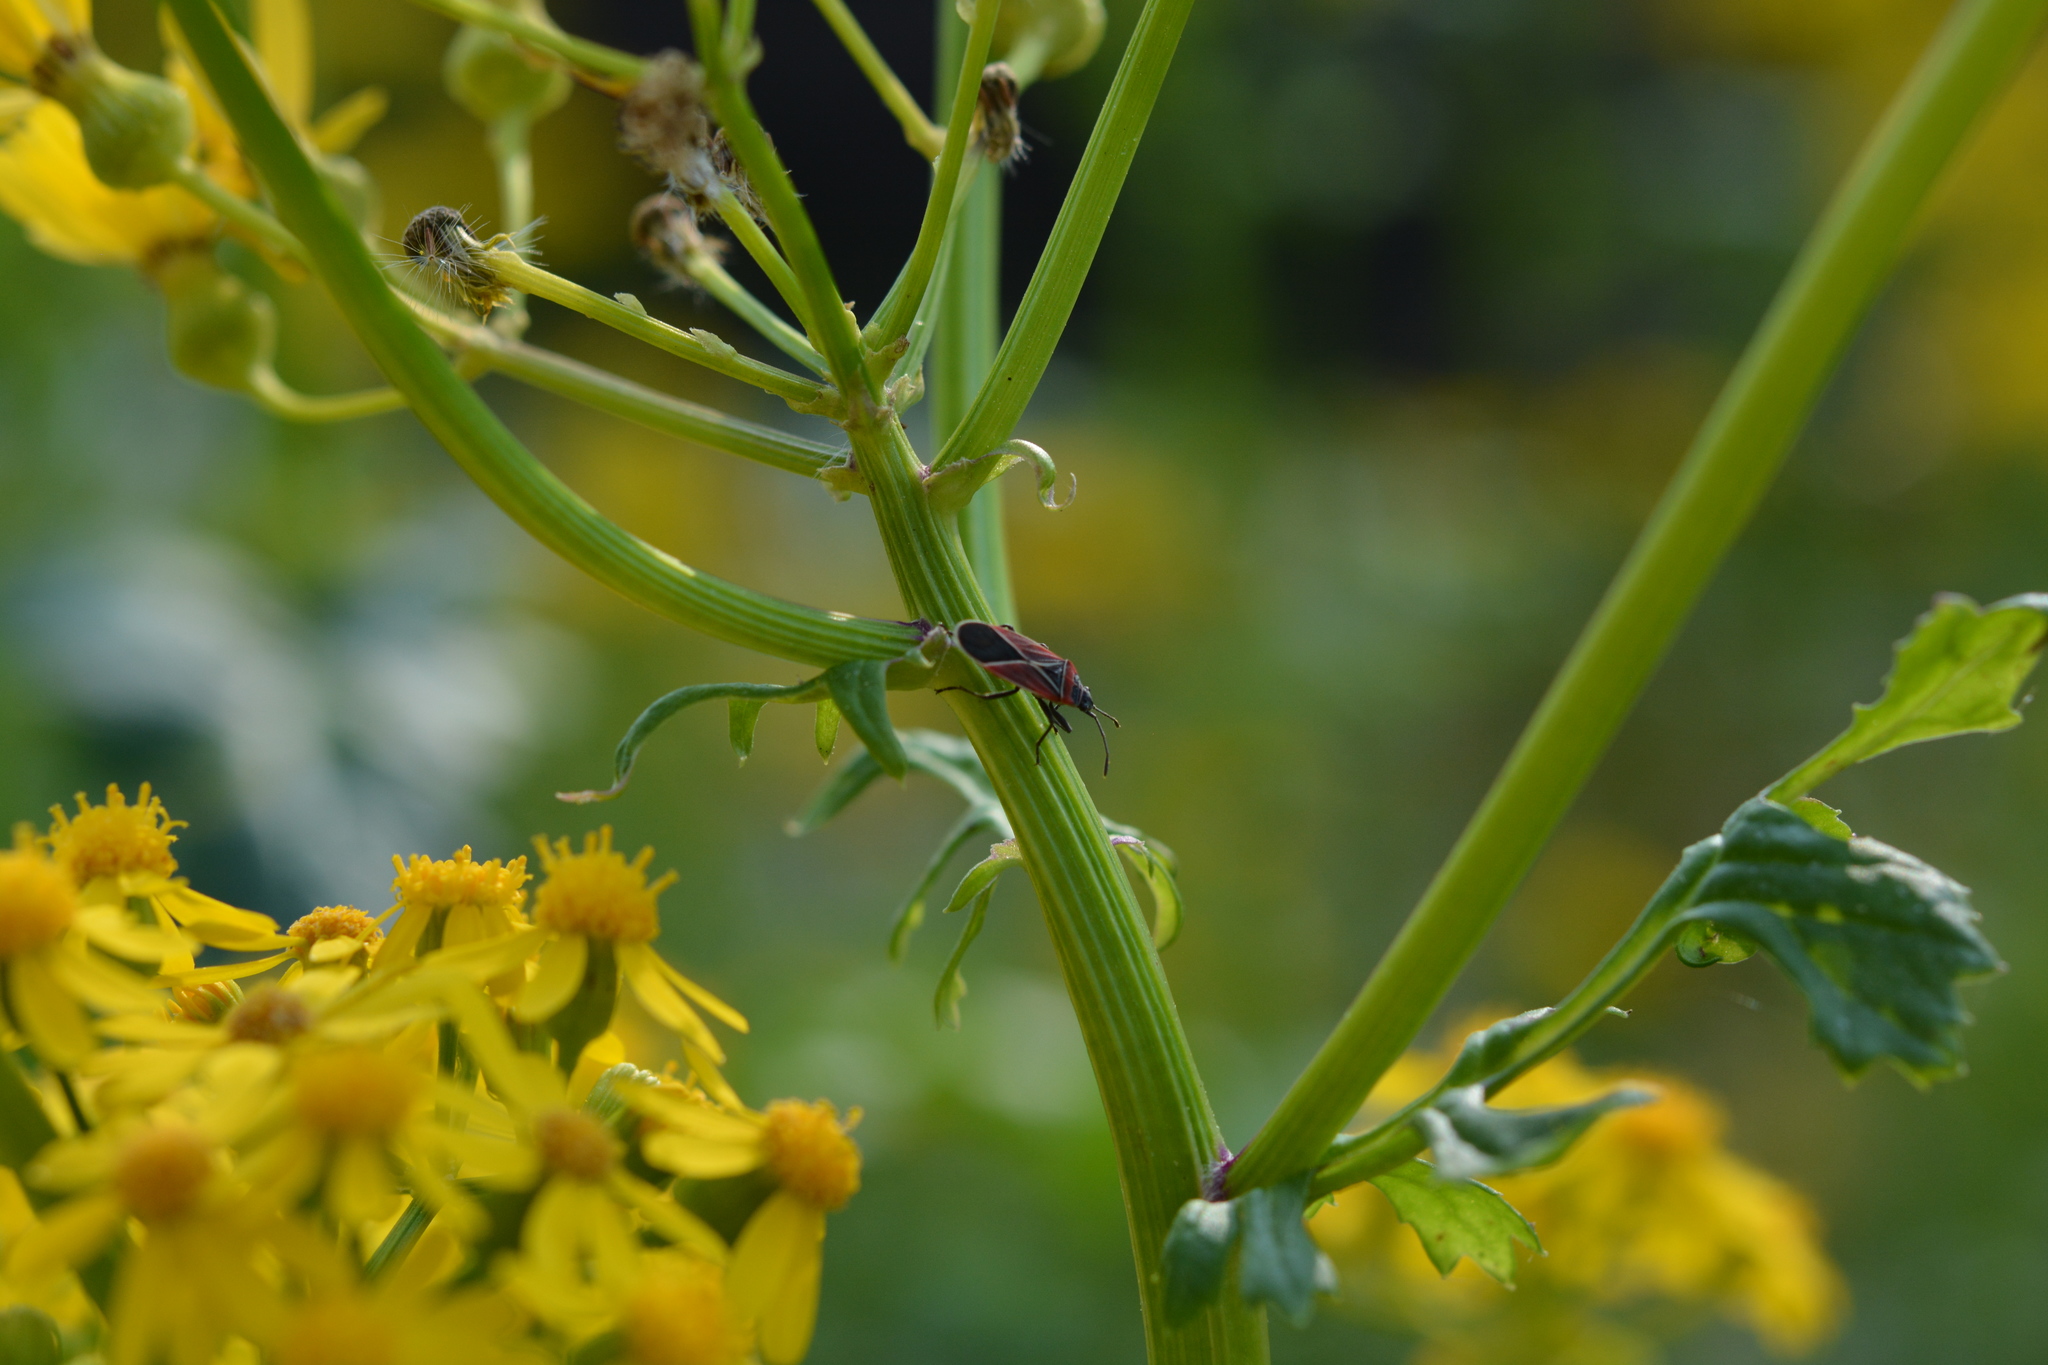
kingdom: Animalia
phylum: Arthropoda
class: Insecta
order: Hemiptera
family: Lygaeidae
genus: Neacoryphus
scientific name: Neacoryphus bicrucis
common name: Lygaeid bug
